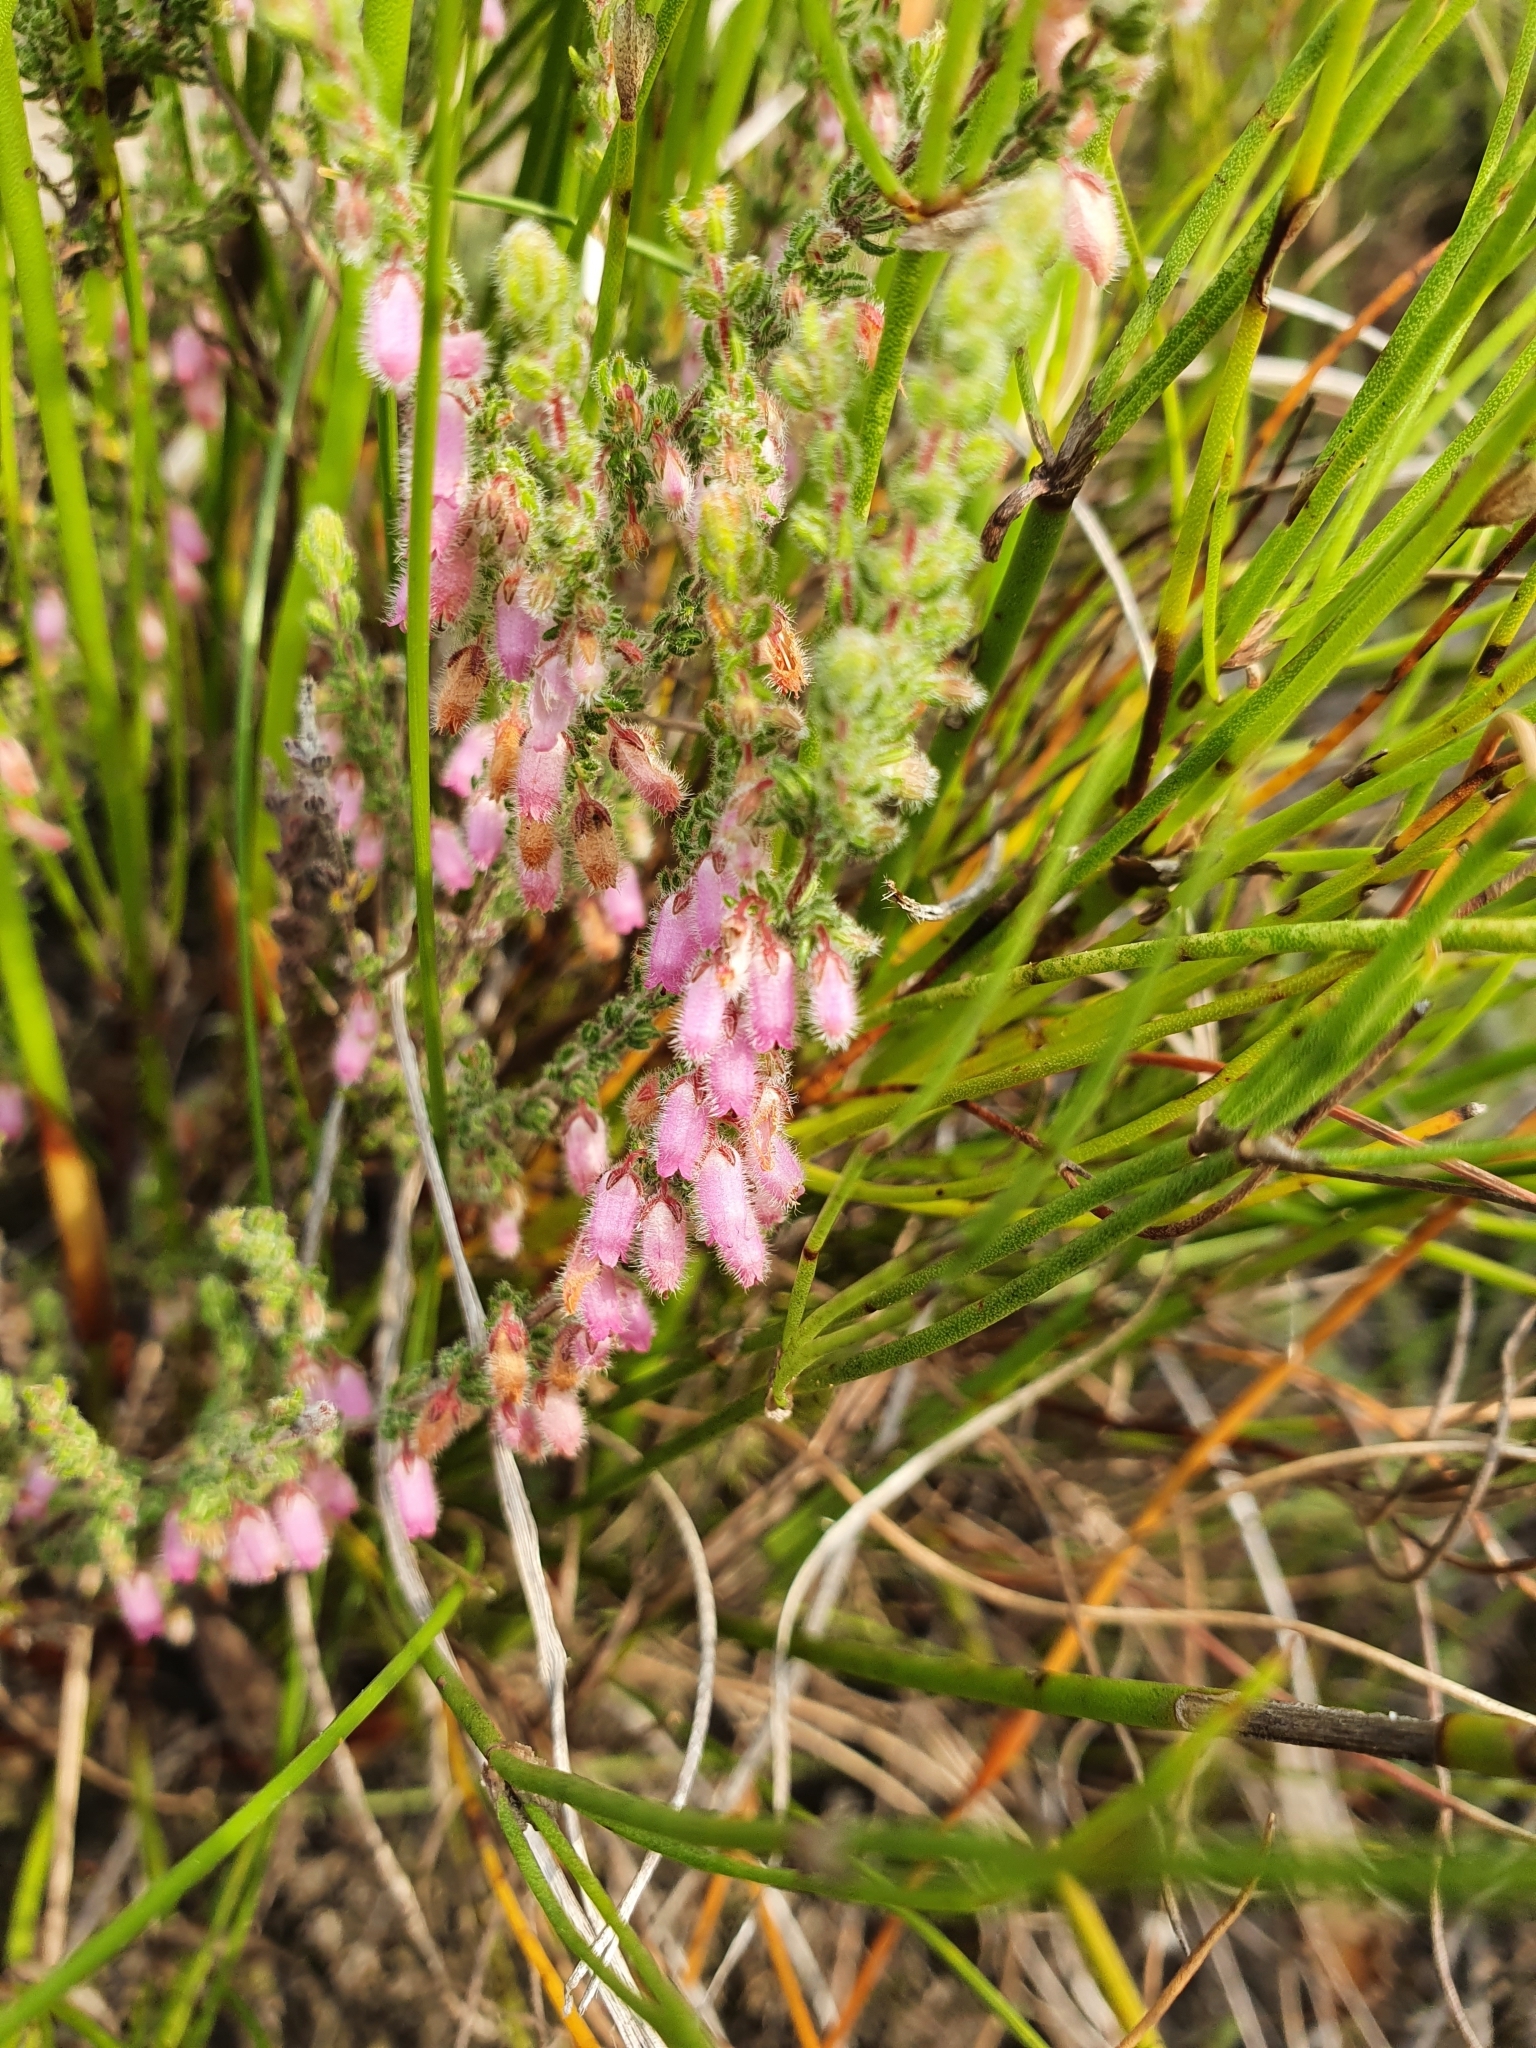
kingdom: Plantae
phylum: Tracheophyta
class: Magnoliopsida
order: Ericales
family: Ericaceae
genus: Erica
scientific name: Erica garciae
